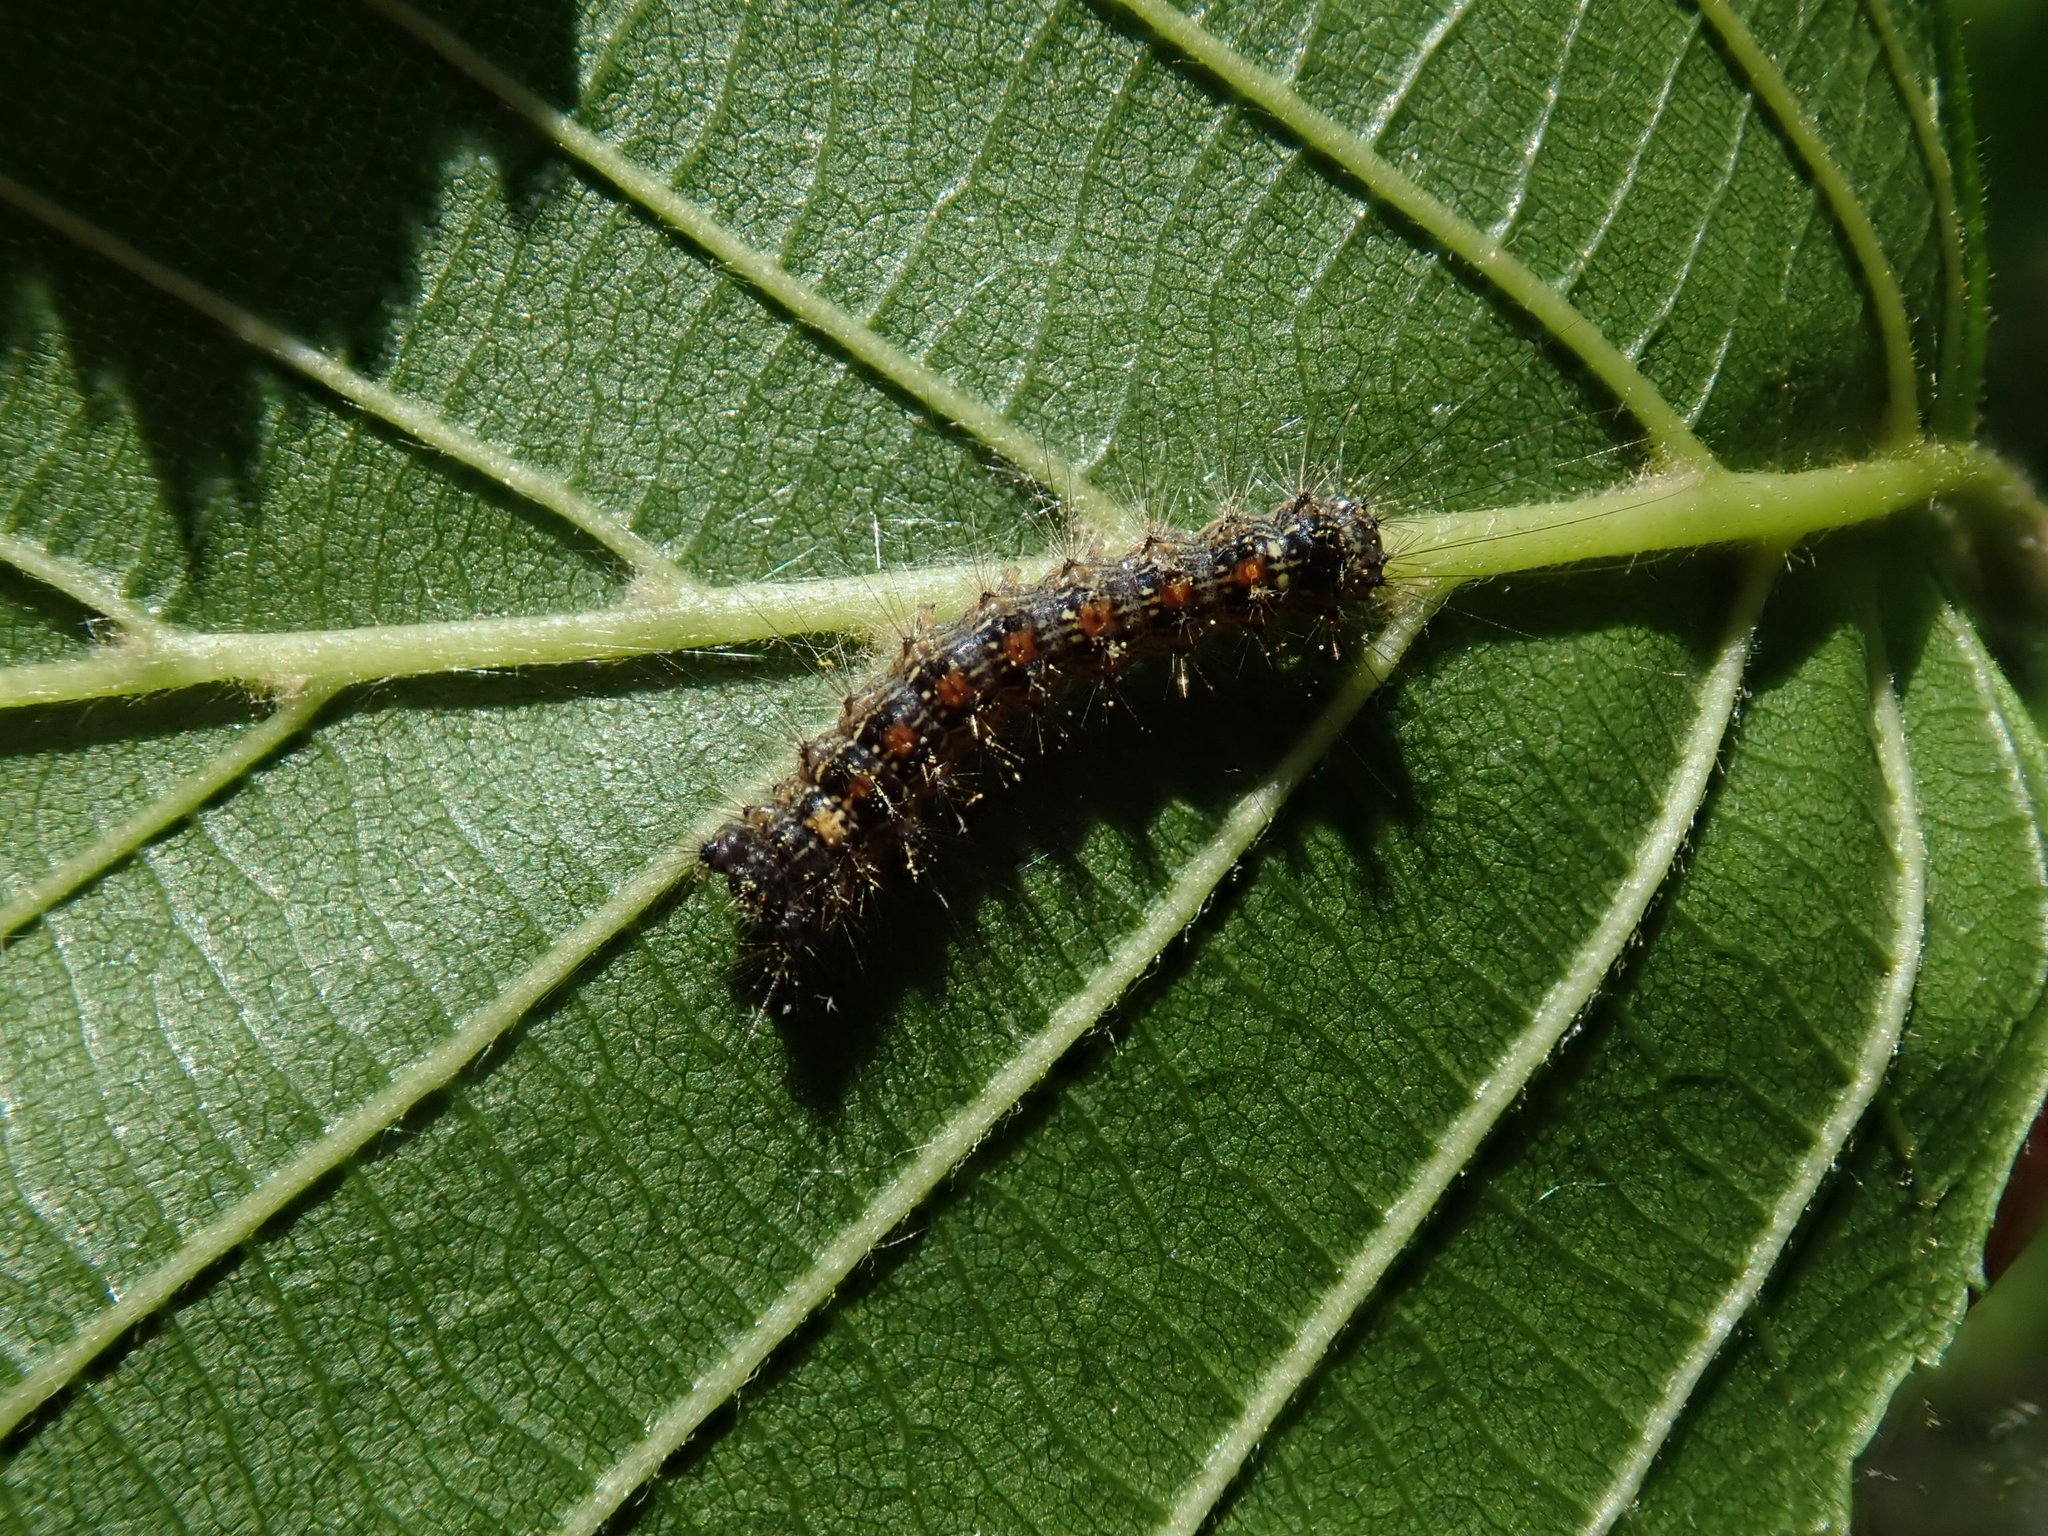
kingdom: Animalia
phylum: Arthropoda
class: Insecta
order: Lepidoptera
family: Erebidae
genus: Lymantria
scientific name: Lymantria dispar
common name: Gypsy moth
